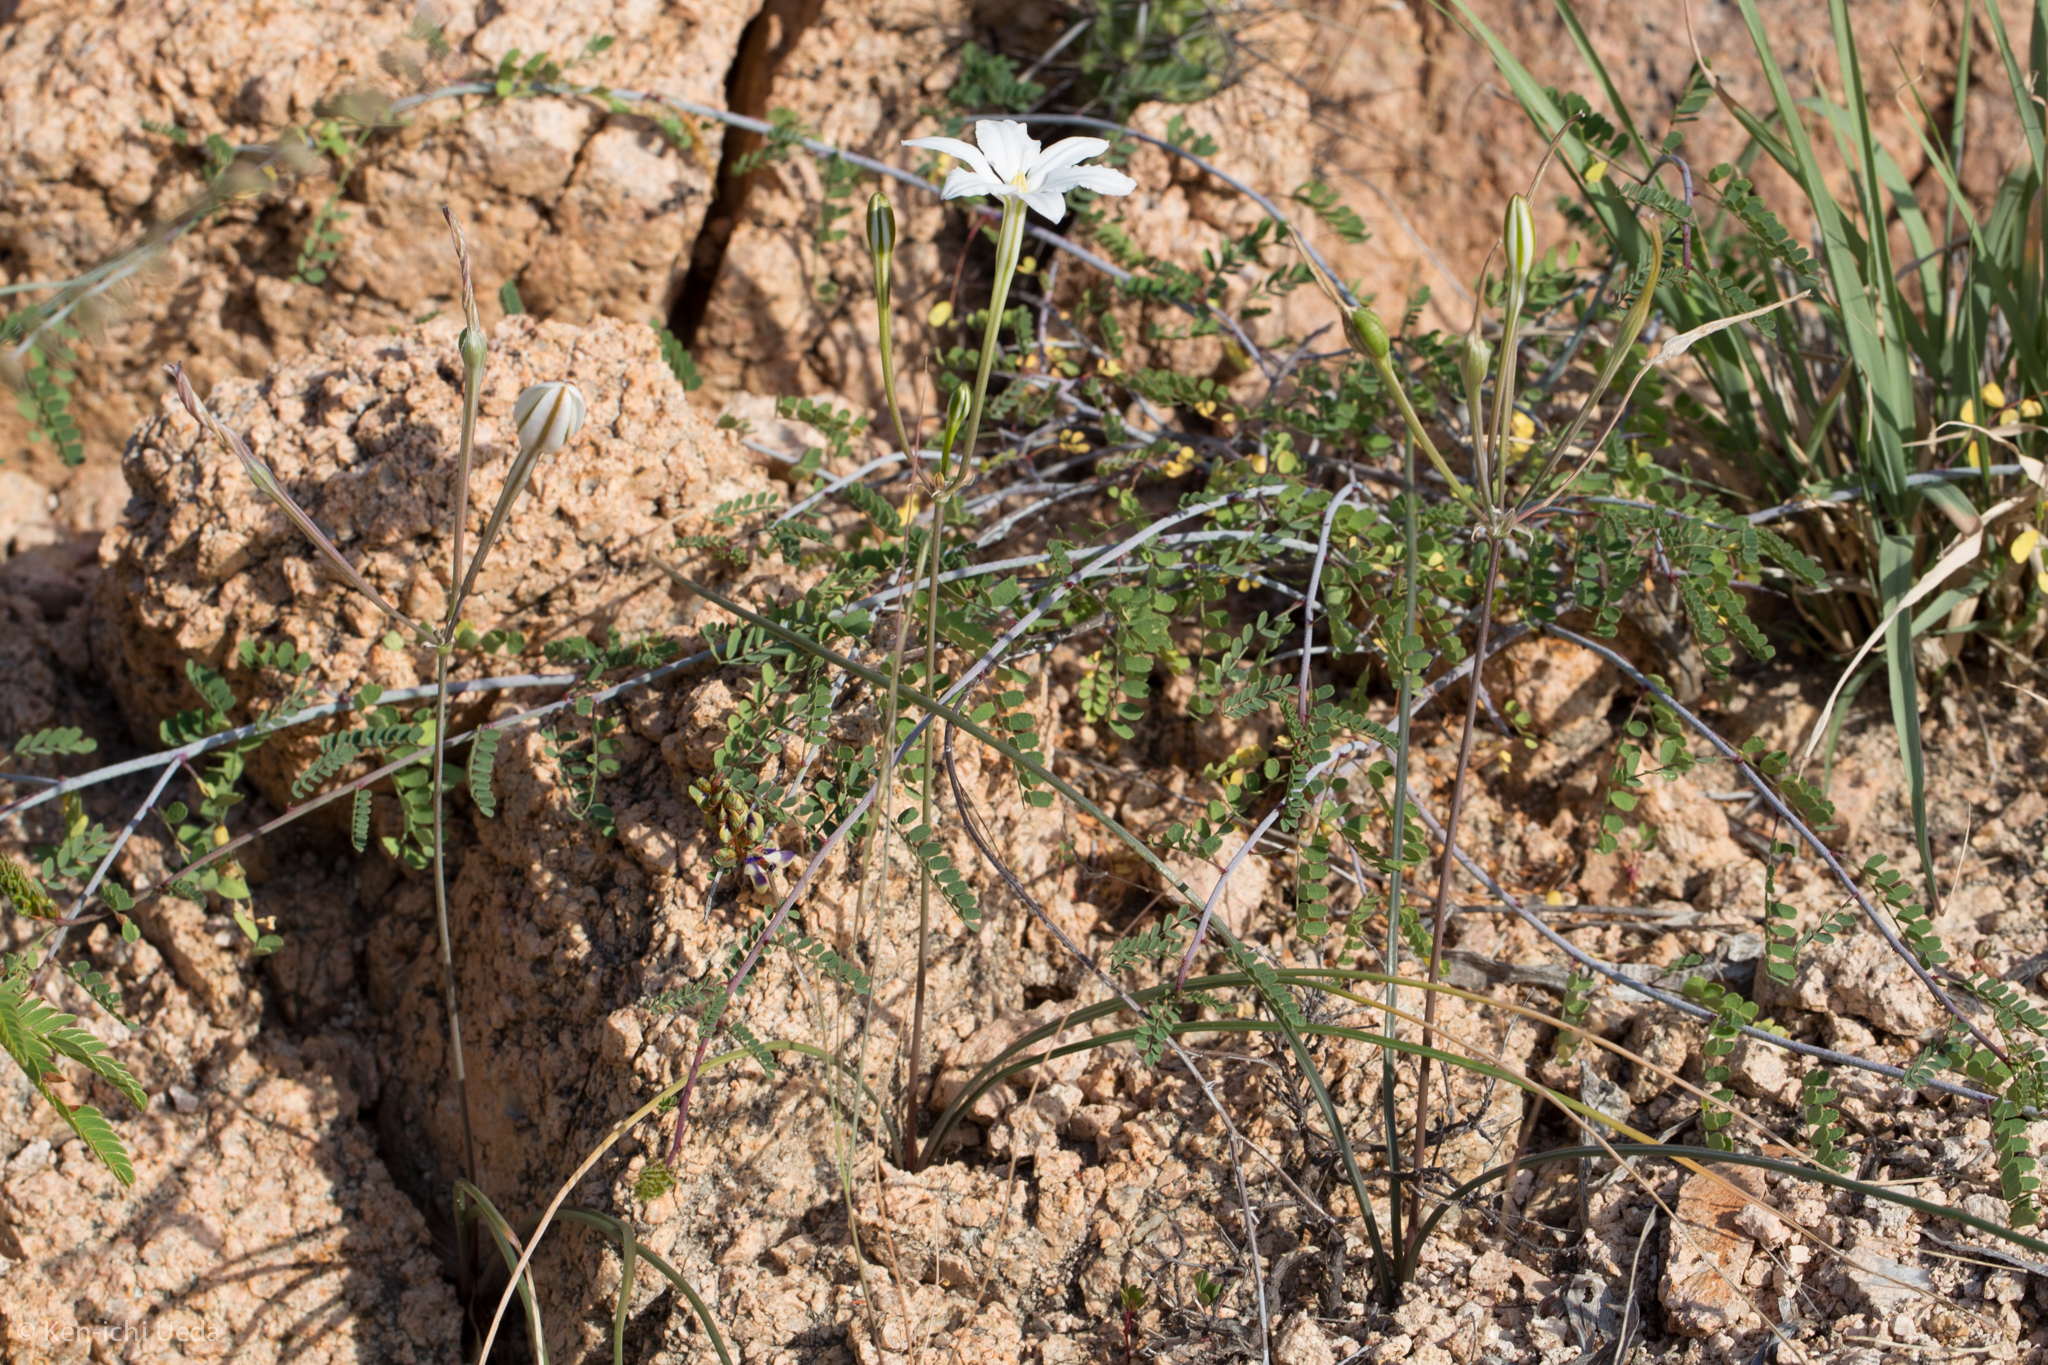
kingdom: Plantae
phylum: Tracheophyta
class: Liliopsida
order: Asparagales
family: Asparagaceae
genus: Milla
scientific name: Milla
